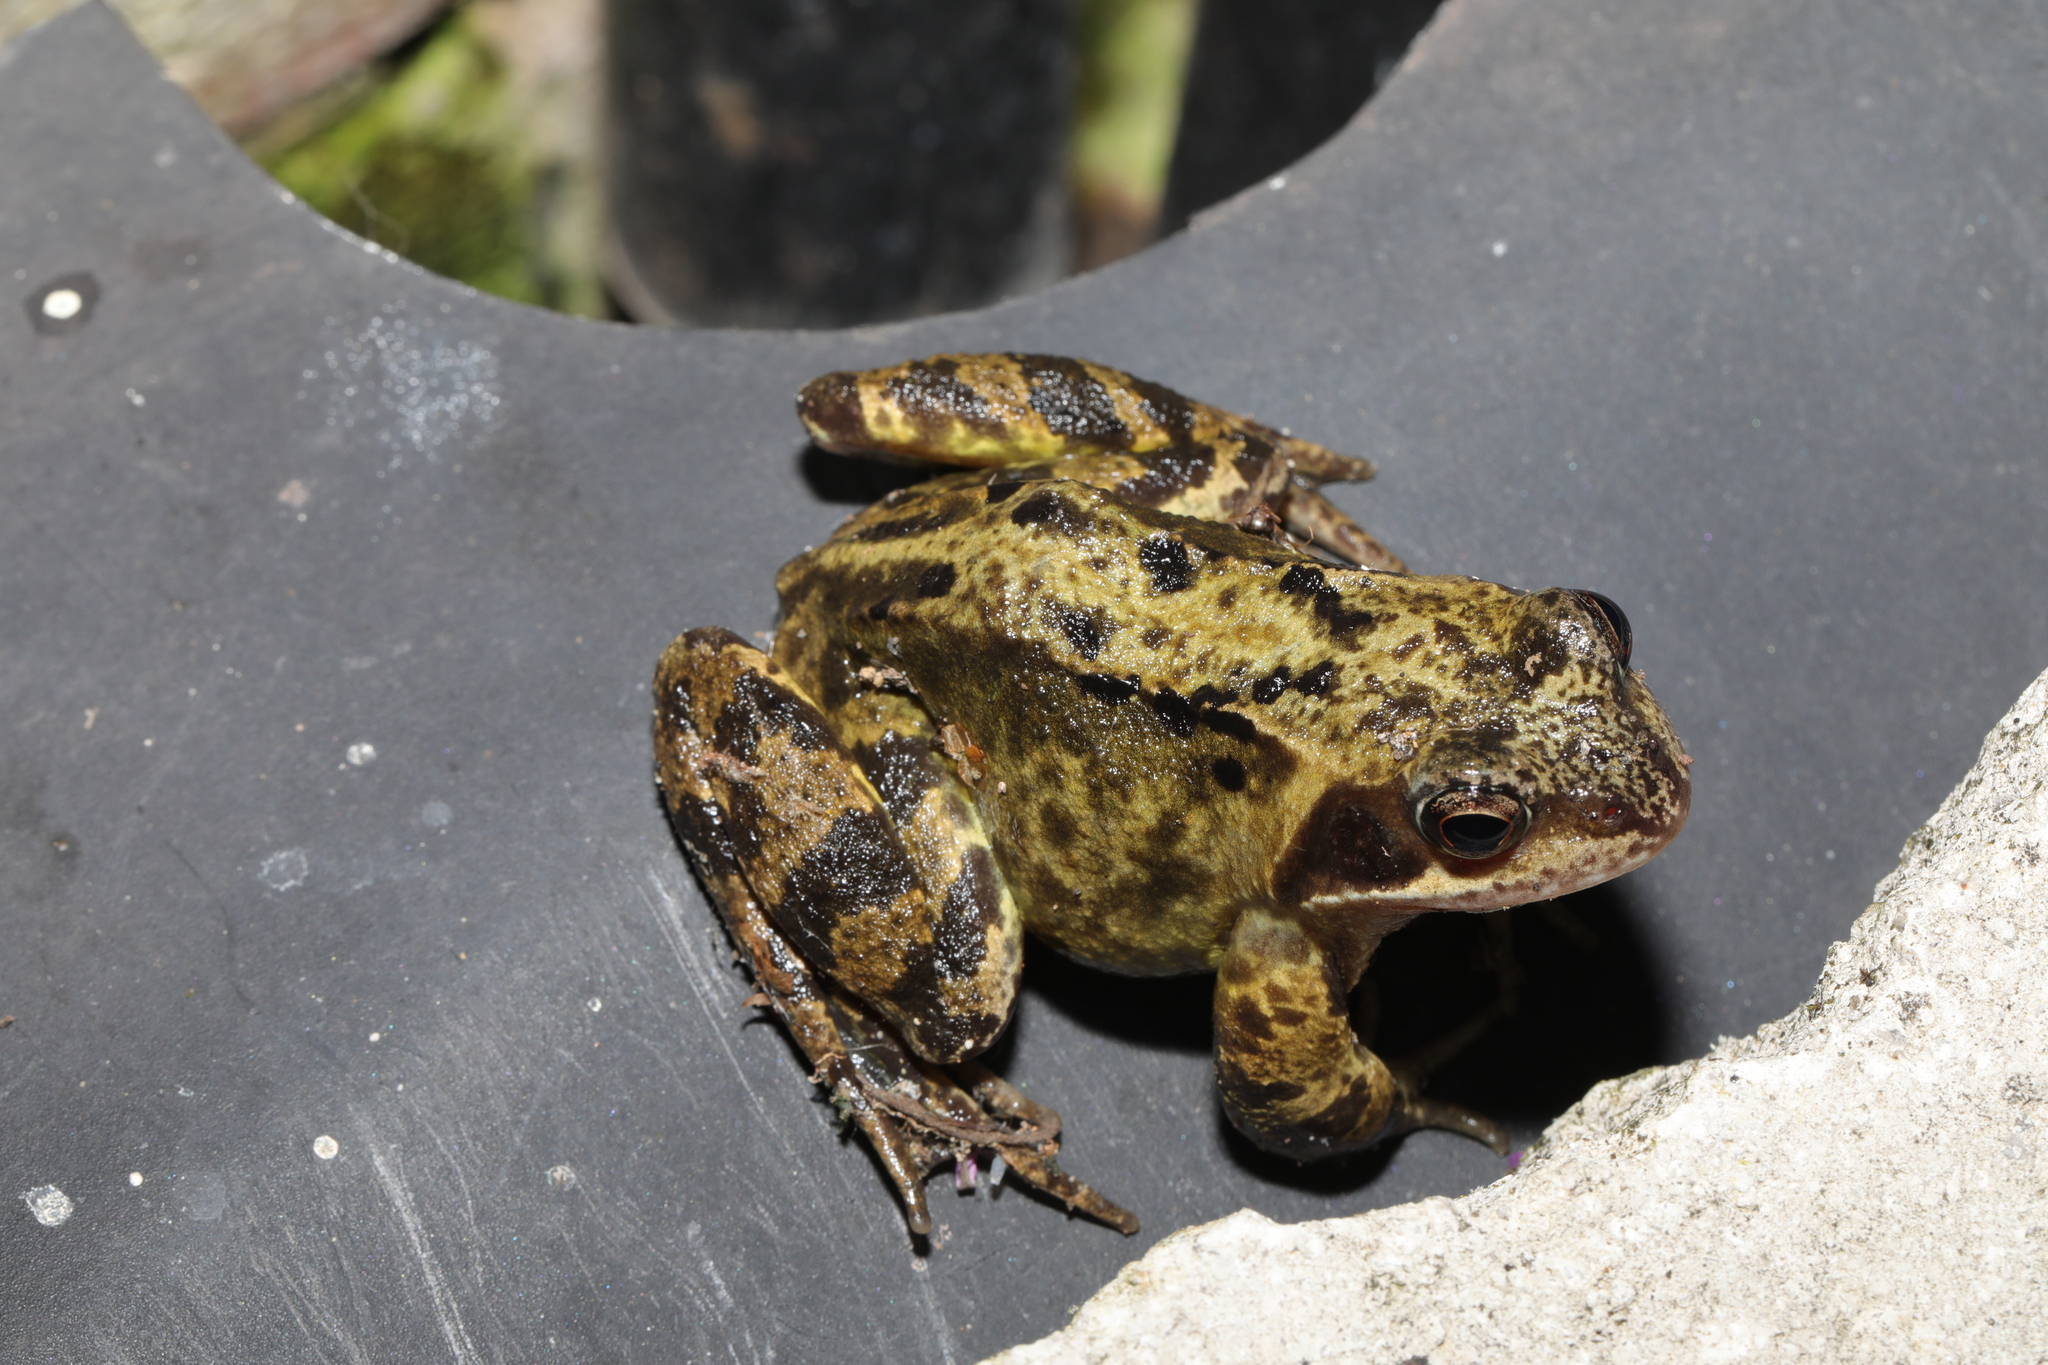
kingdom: Animalia
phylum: Chordata
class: Amphibia
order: Anura
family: Ranidae
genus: Rana
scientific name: Rana temporaria
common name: Common frog
